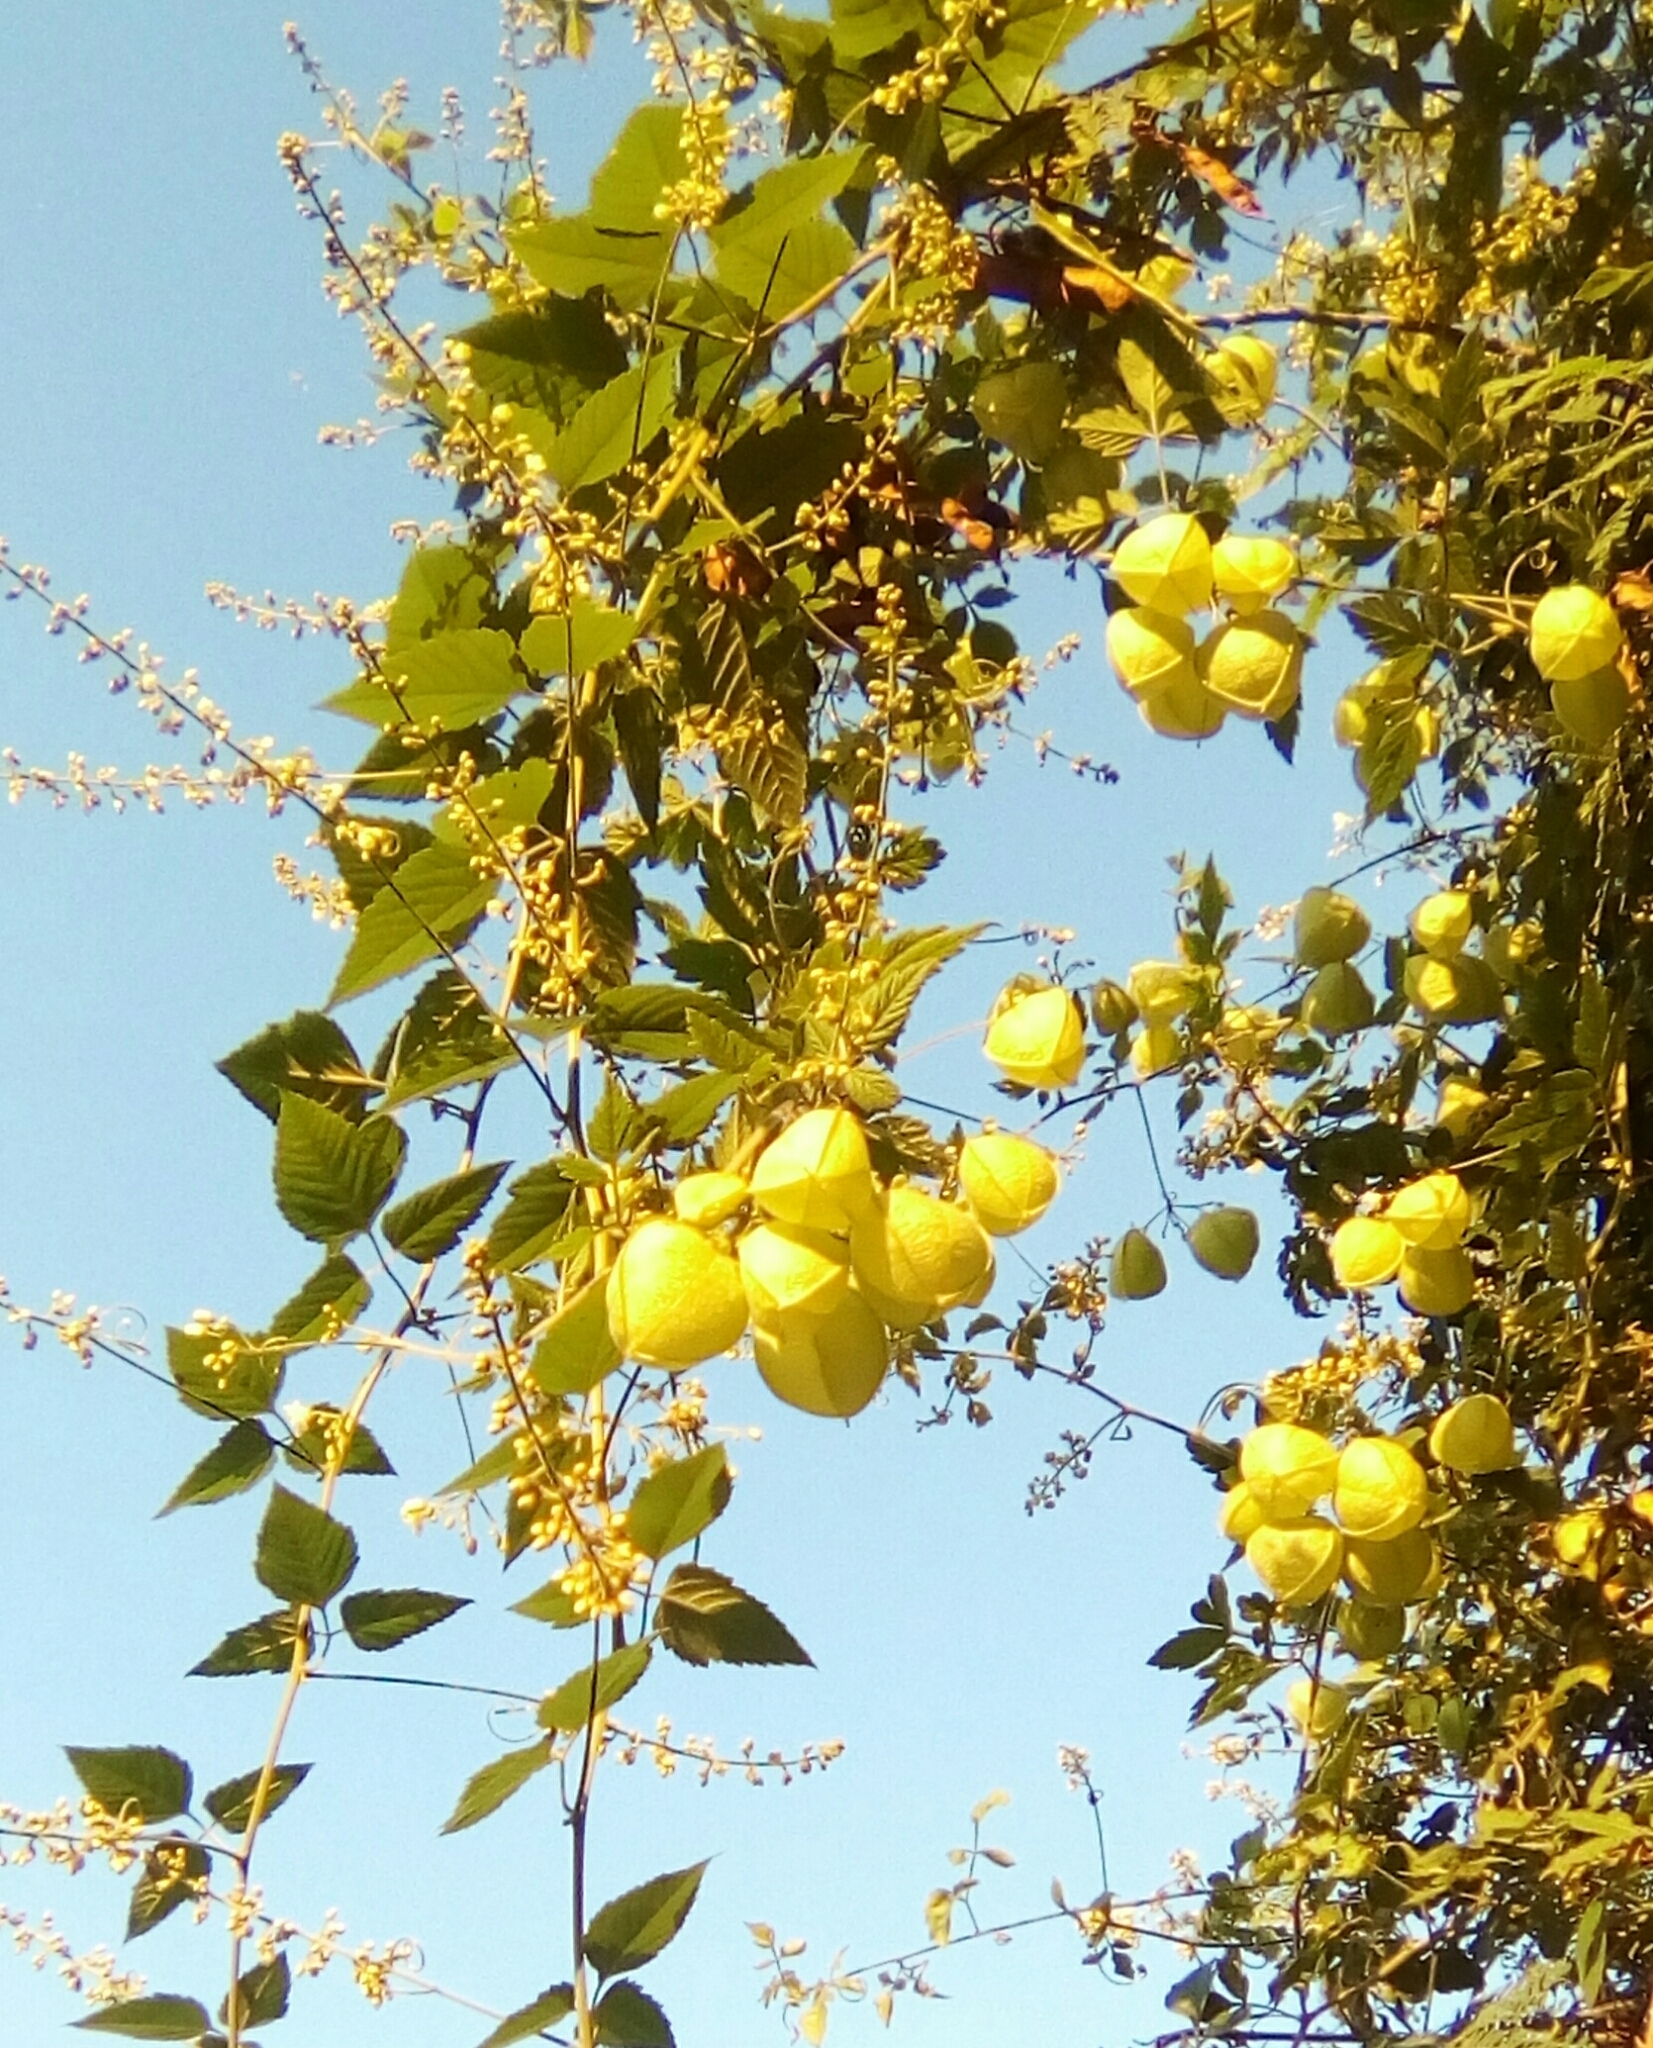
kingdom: Plantae
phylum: Tracheophyta
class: Magnoliopsida
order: Sapindales
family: Sapindaceae
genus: Cardiospermum
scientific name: Cardiospermum halicacabum
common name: Balloon vine
